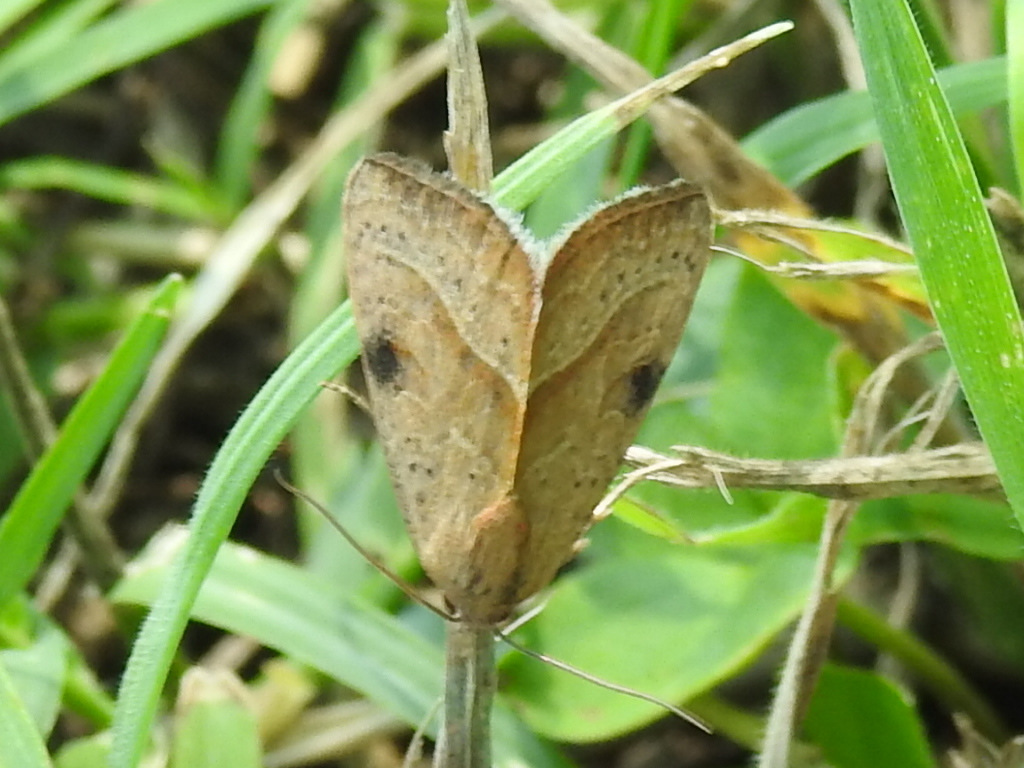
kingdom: Animalia
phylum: Arthropoda
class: Insecta
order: Lepidoptera
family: Noctuidae
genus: Galgula
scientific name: Galgula partita
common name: Wedgeling
